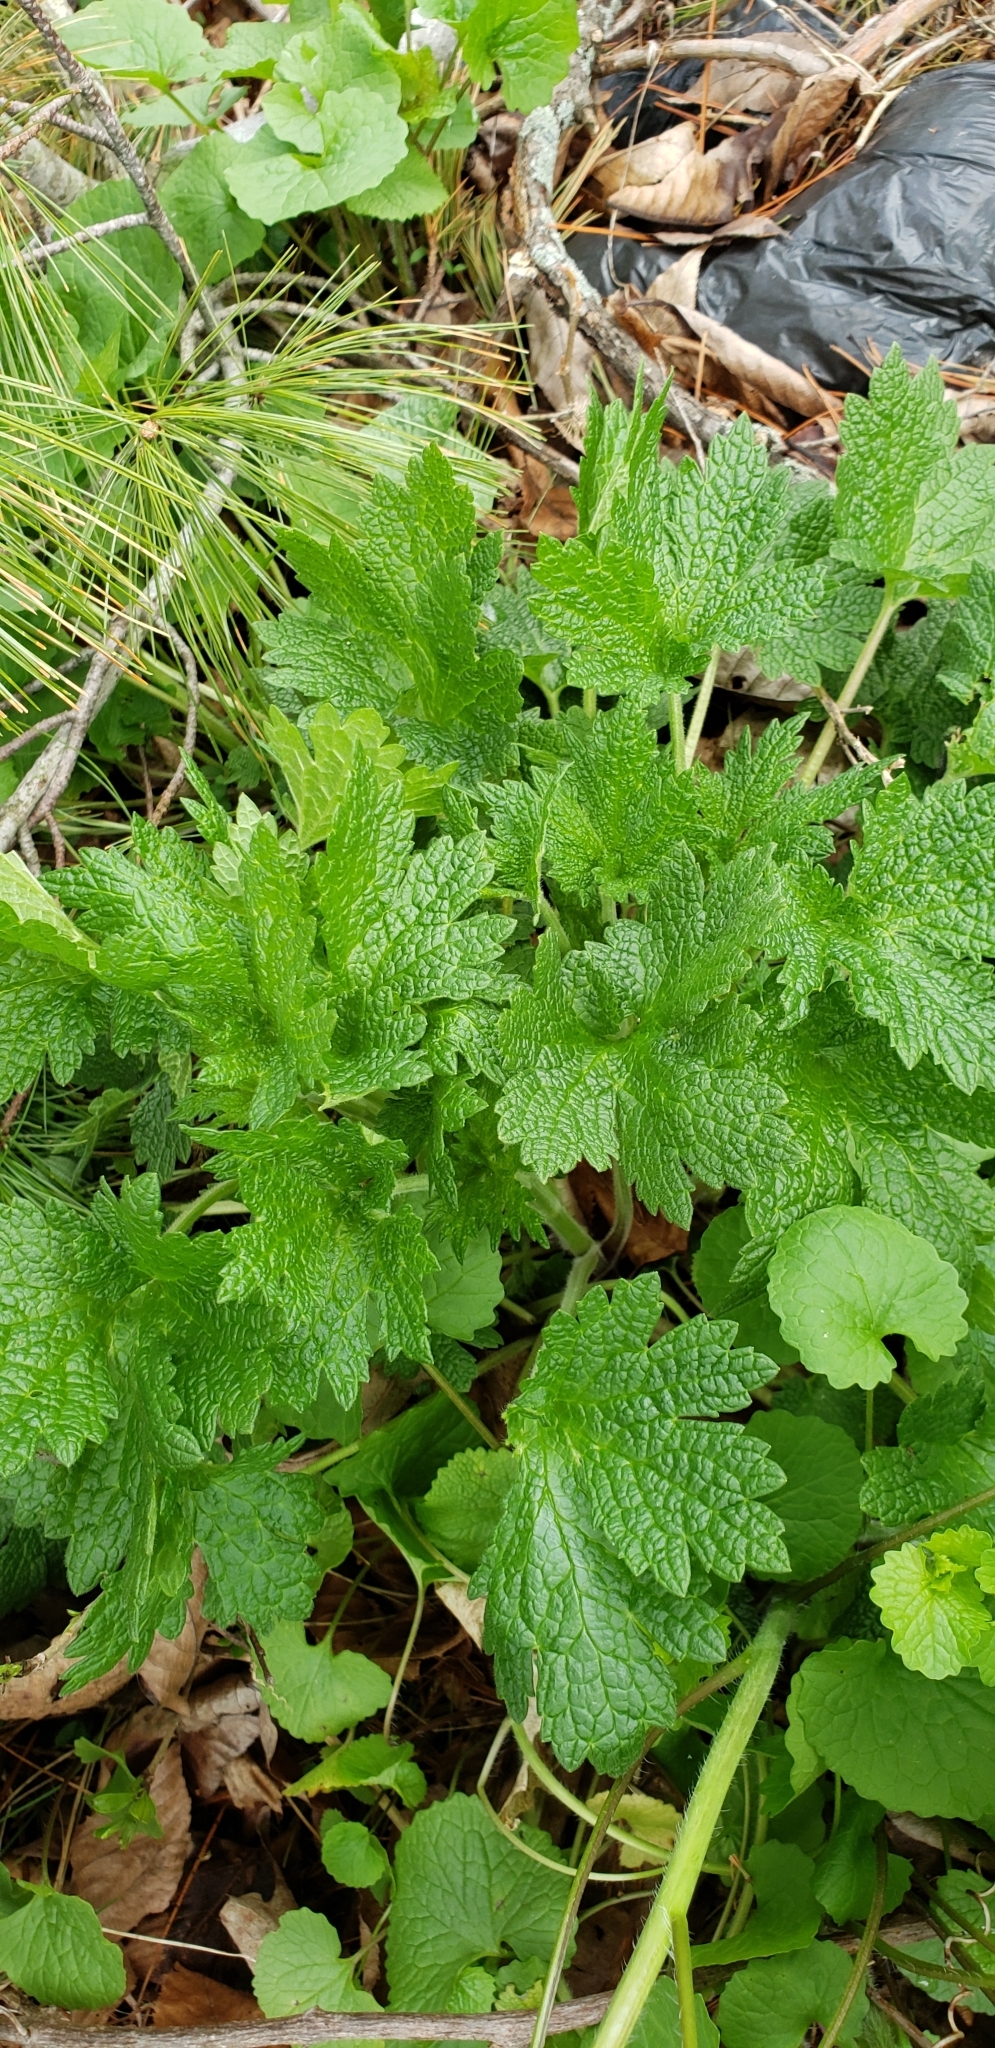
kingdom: Plantae
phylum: Tracheophyta
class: Magnoliopsida
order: Lamiales
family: Lamiaceae
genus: Leonurus
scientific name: Leonurus cardiaca
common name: Motherwort
